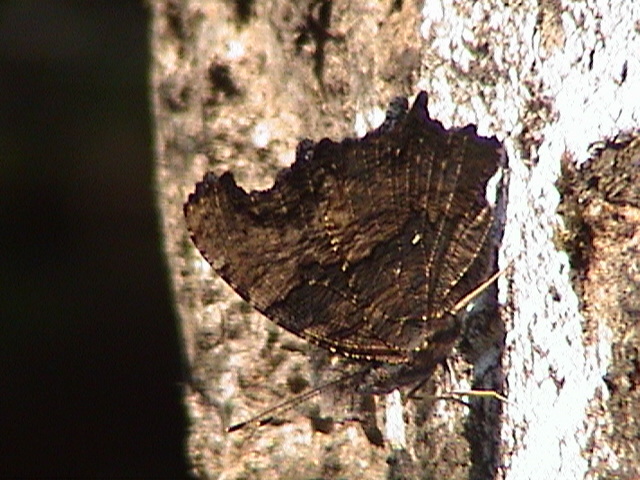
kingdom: Animalia
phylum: Arthropoda
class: Insecta
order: Lepidoptera
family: Nymphalidae
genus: Vanessa
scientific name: Vanessa Kaniska canace
